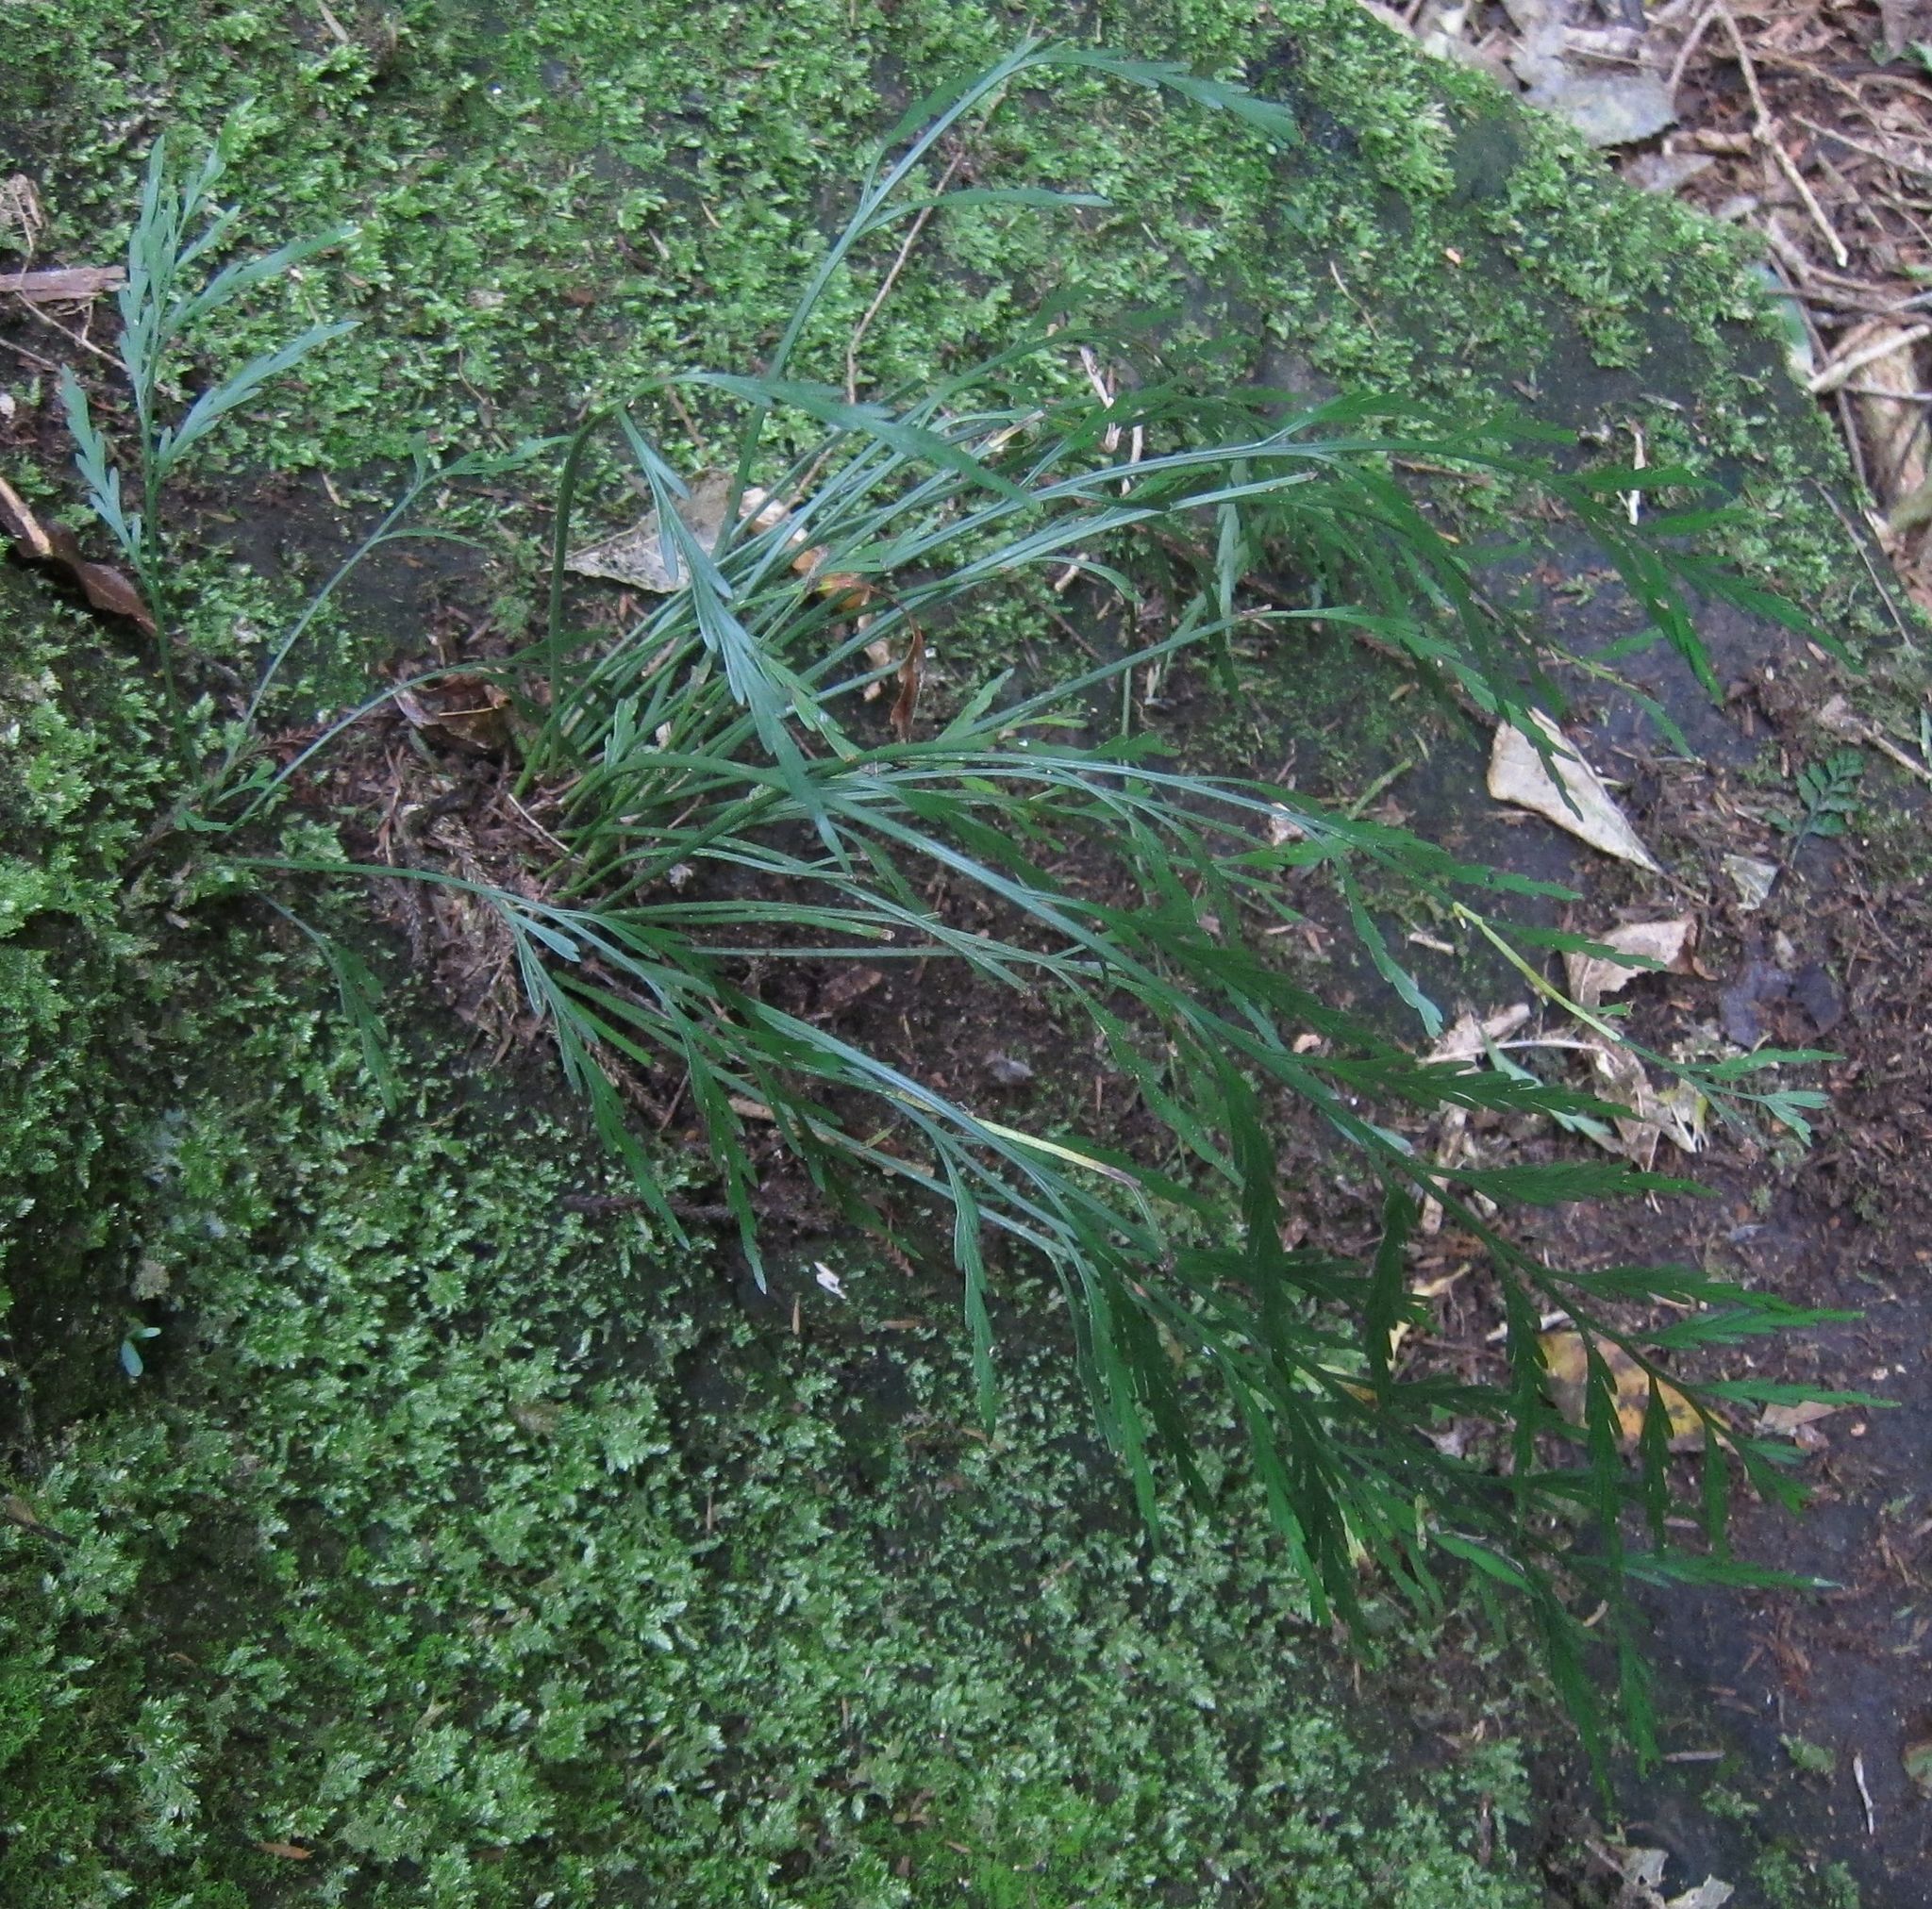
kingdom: Plantae
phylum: Tracheophyta
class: Polypodiopsida
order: Polypodiales
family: Aspleniaceae
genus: Asplenium
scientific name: Asplenium flaccidum
